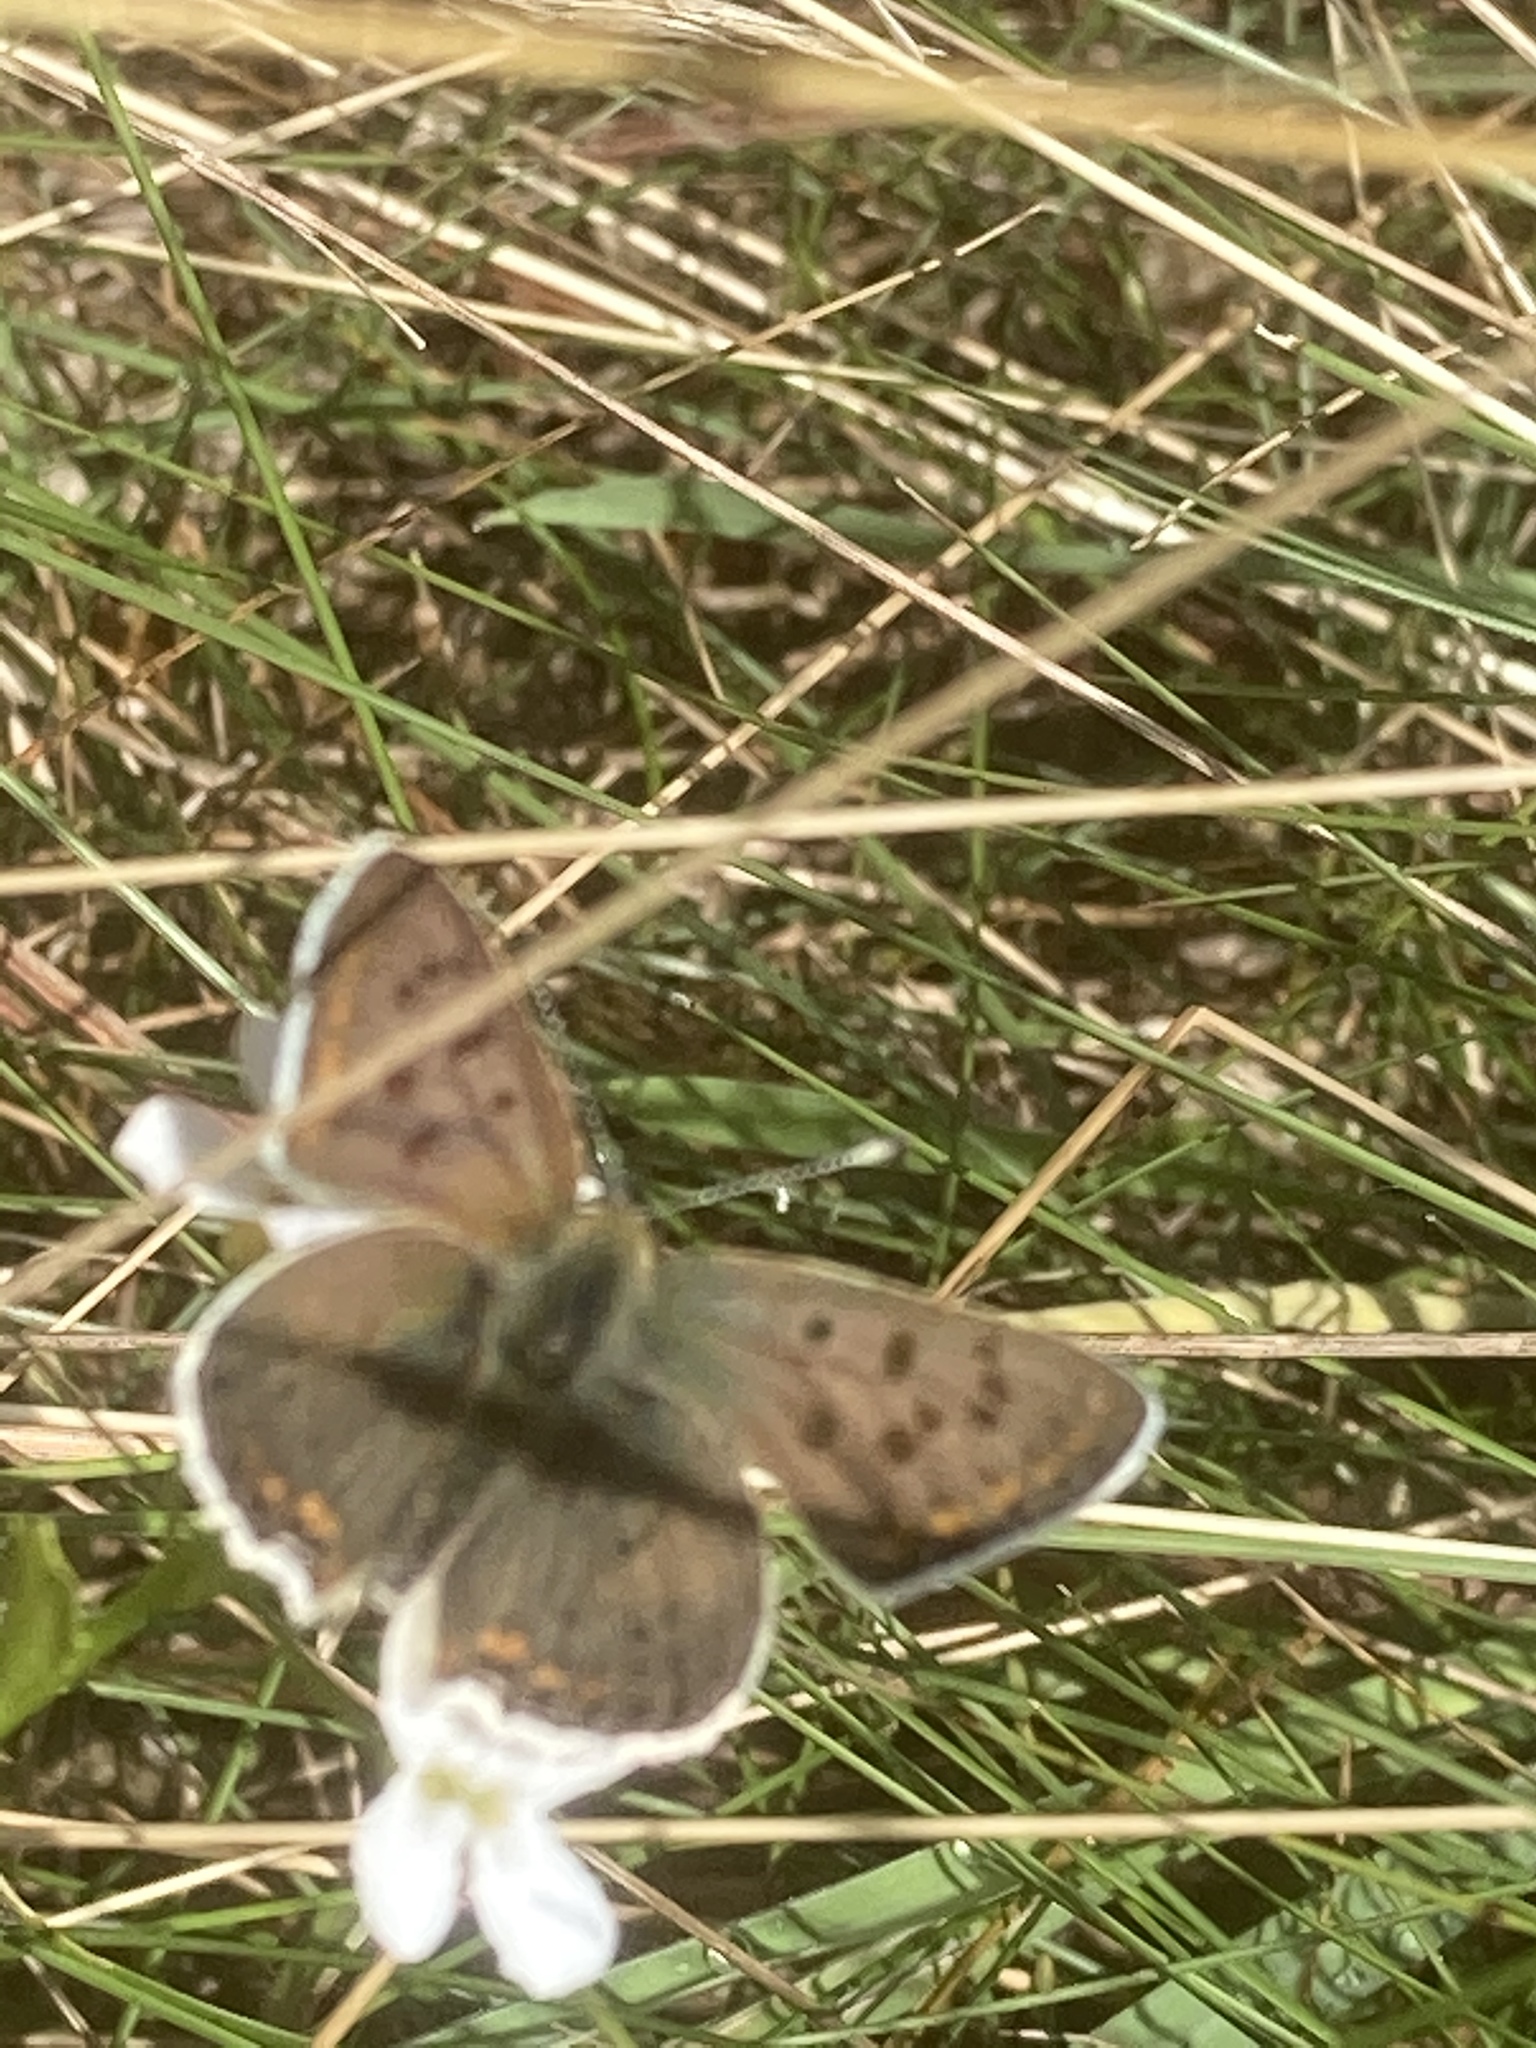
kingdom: Animalia
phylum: Arthropoda
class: Insecta
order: Lepidoptera
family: Lycaenidae
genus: Loweia
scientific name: Loweia tityrus
